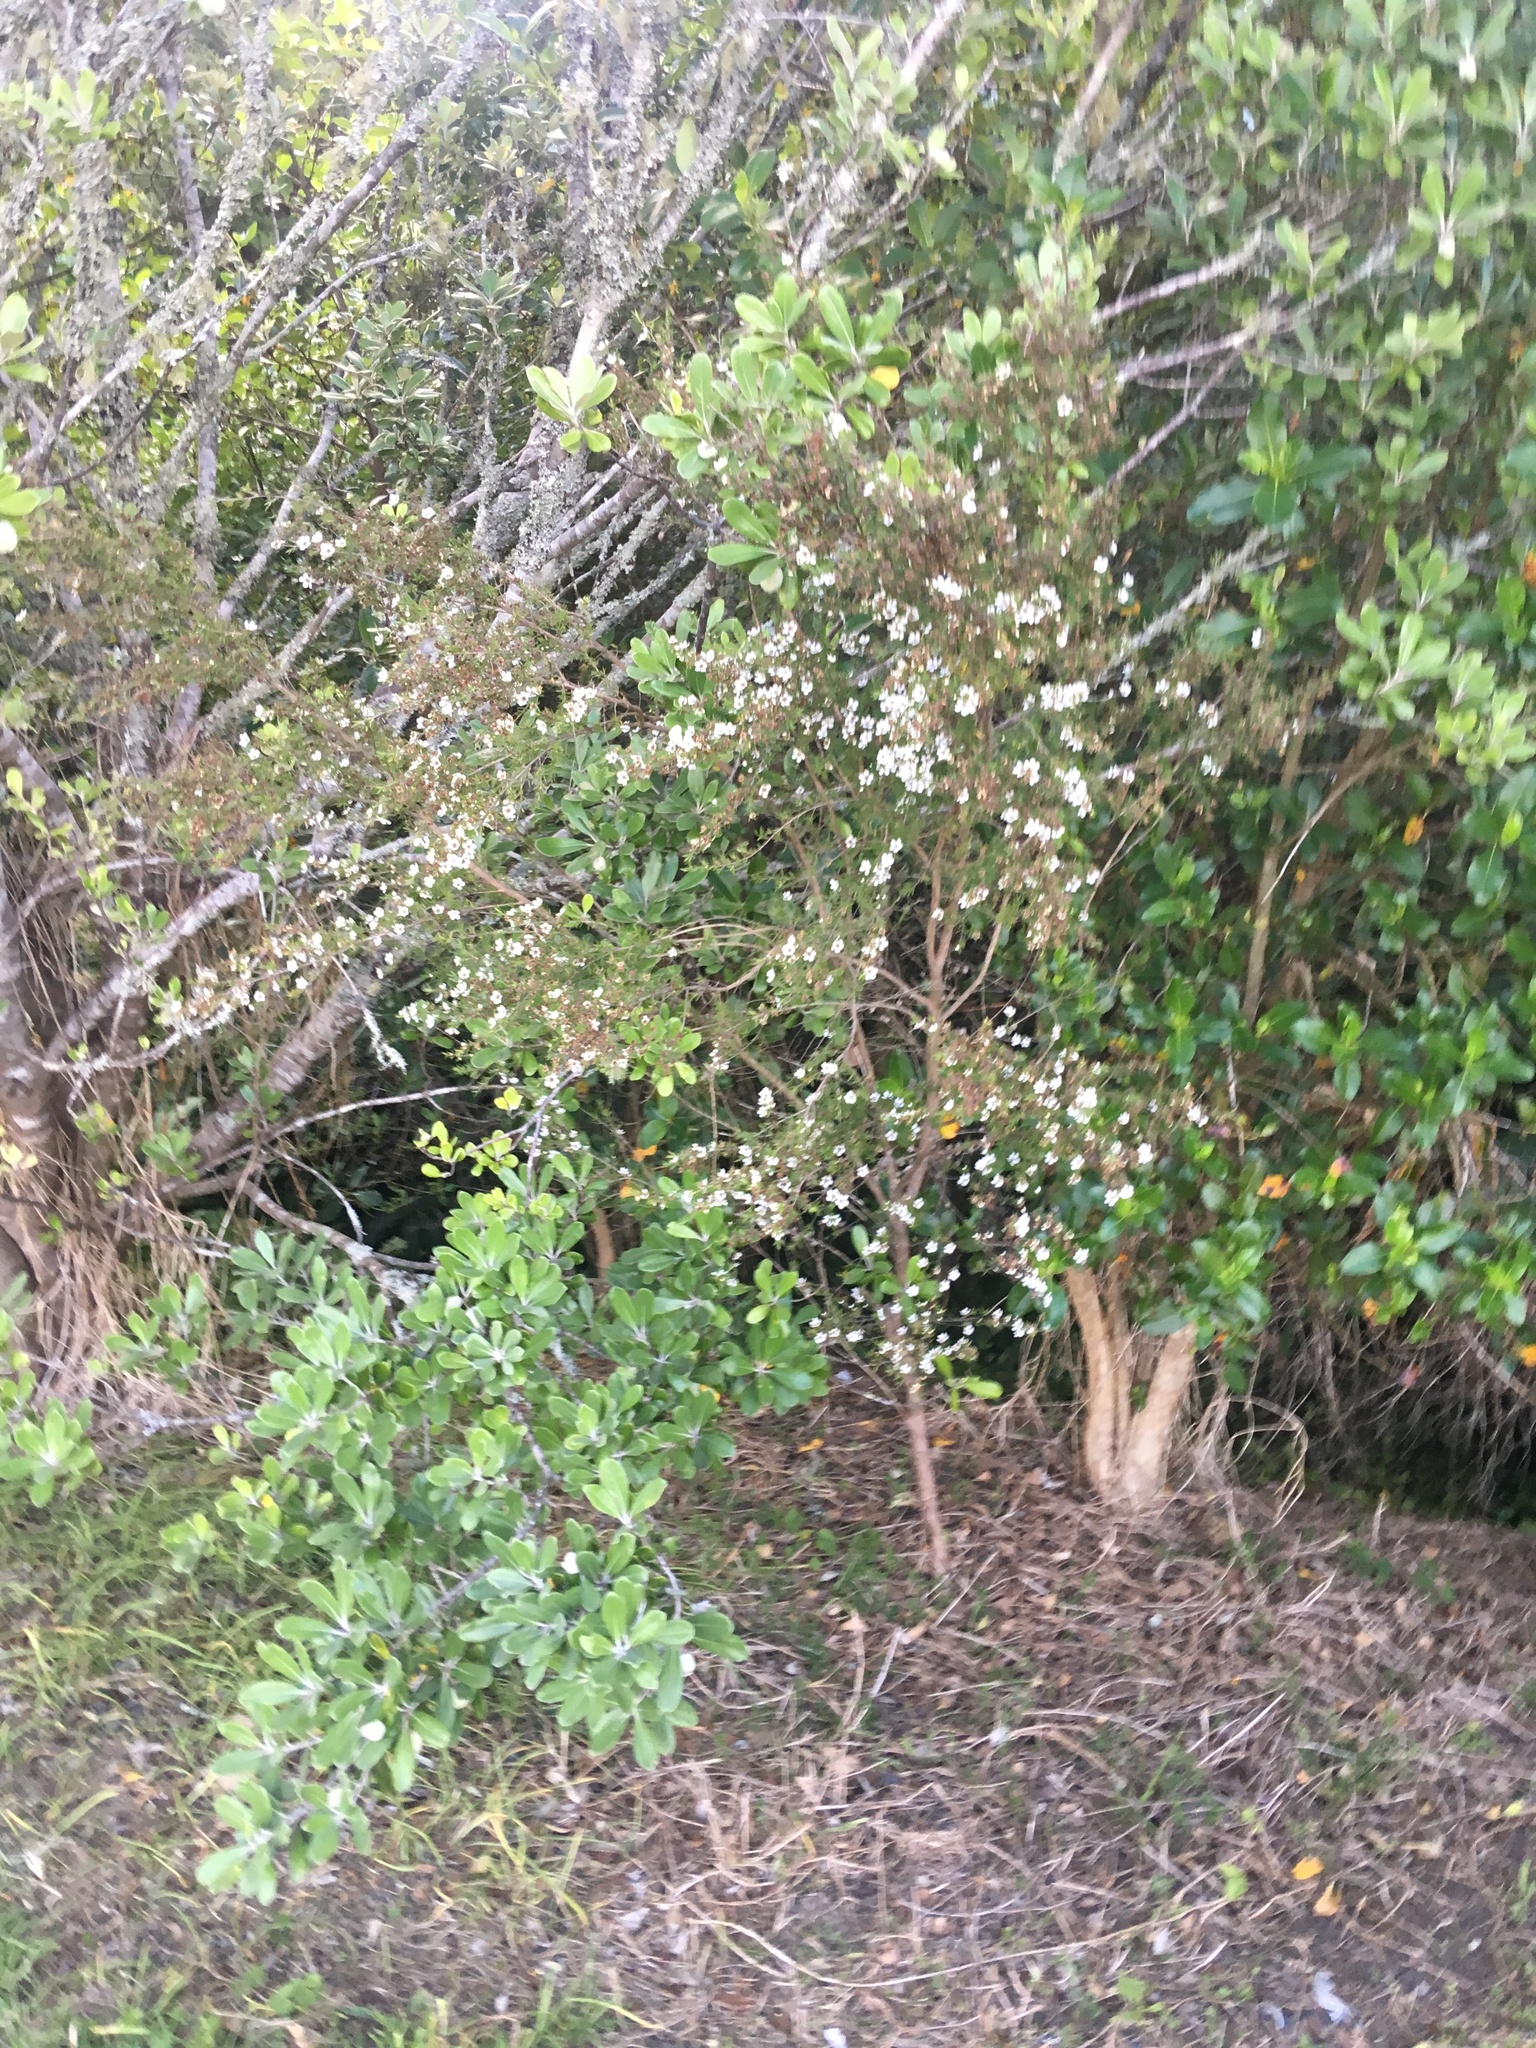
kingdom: Plantae
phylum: Tracheophyta
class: Magnoliopsida
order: Apiales
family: Pittosporaceae
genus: Pittosporum
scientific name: Pittosporum crassifolium
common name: Karo
